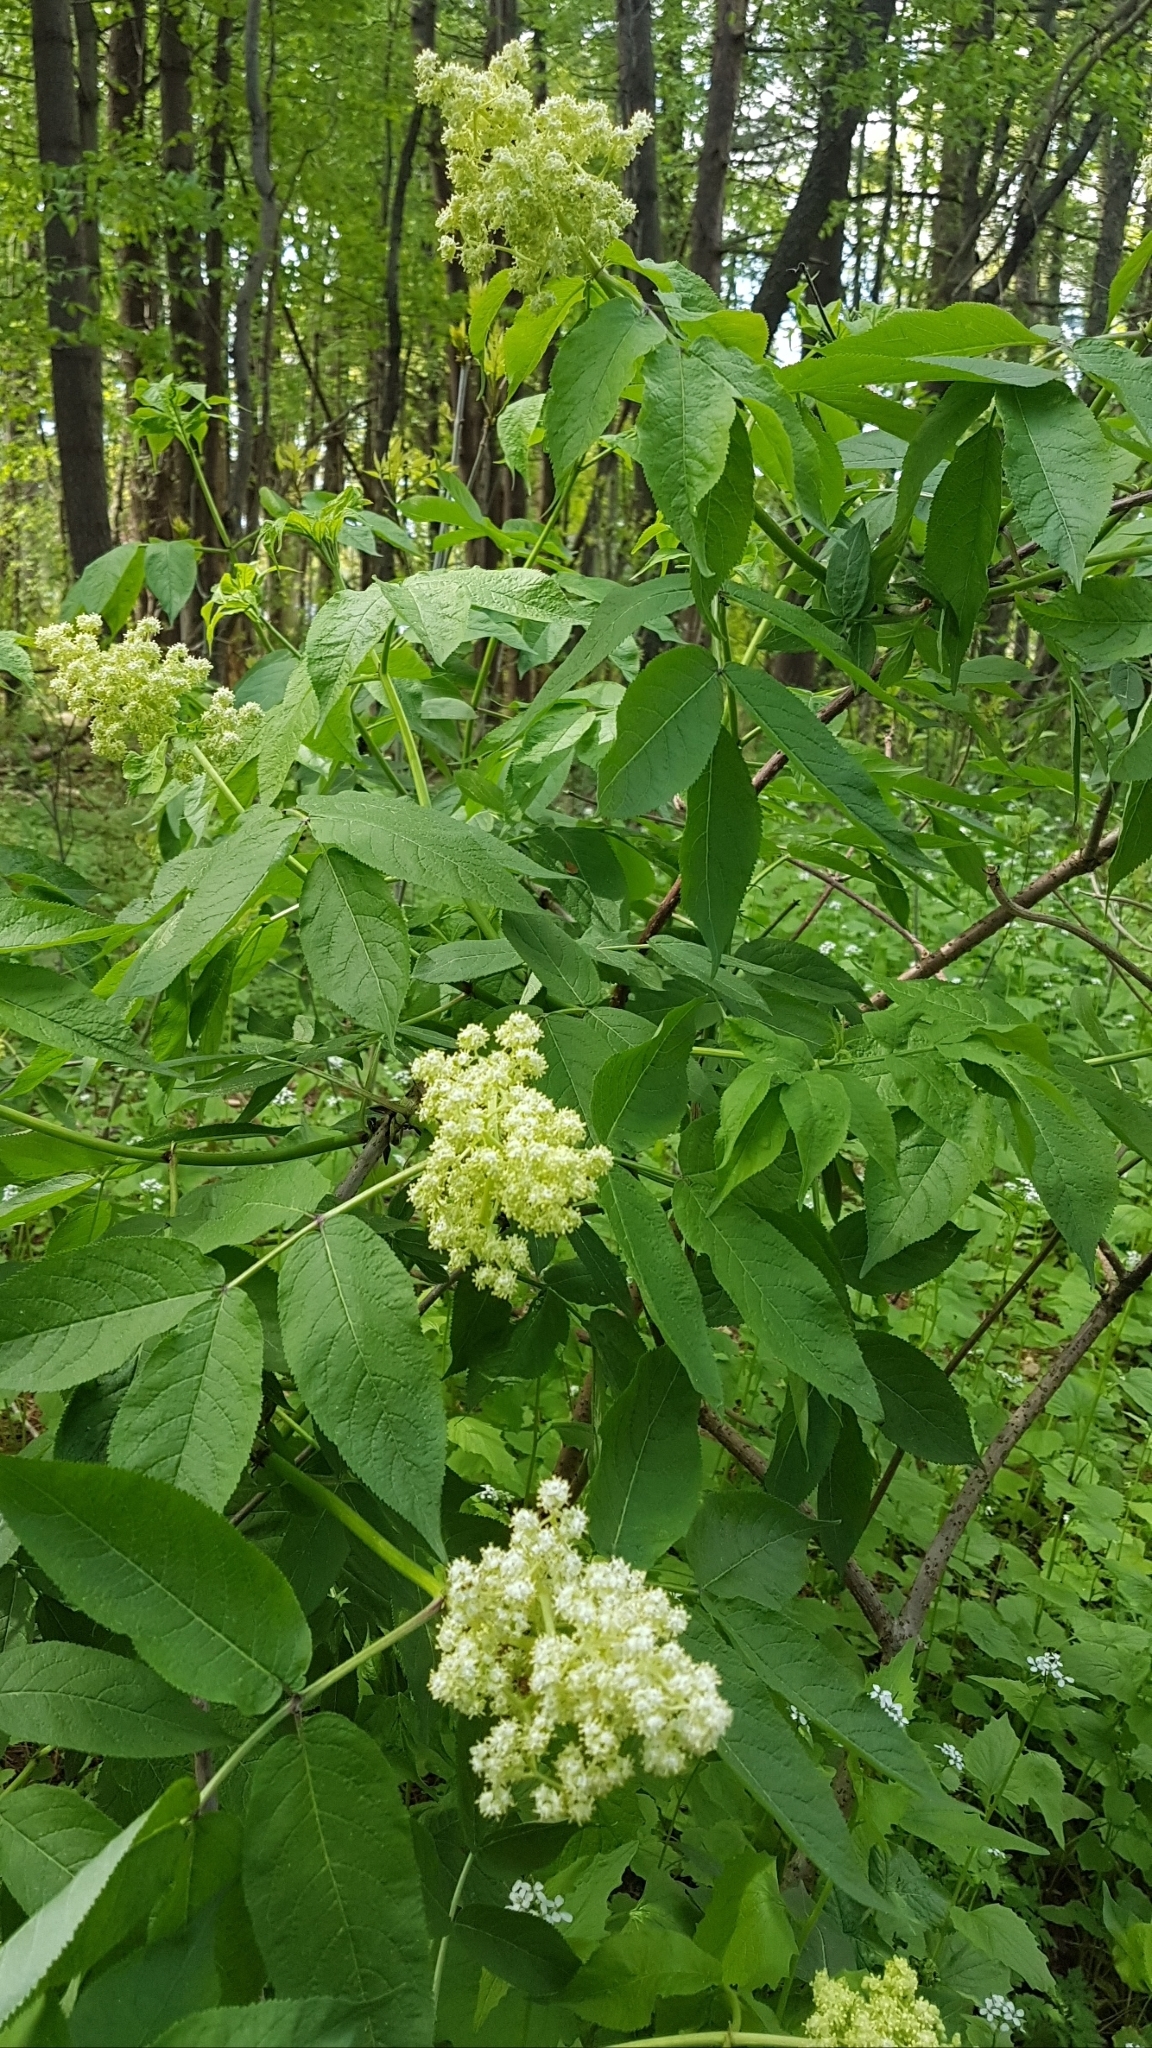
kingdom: Plantae
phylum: Tracheophyta
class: Magnoliopsida
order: Dipsacales
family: Viburnaceae
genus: Sambucus
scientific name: Sambucus racemosa
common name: Red-berried elder
